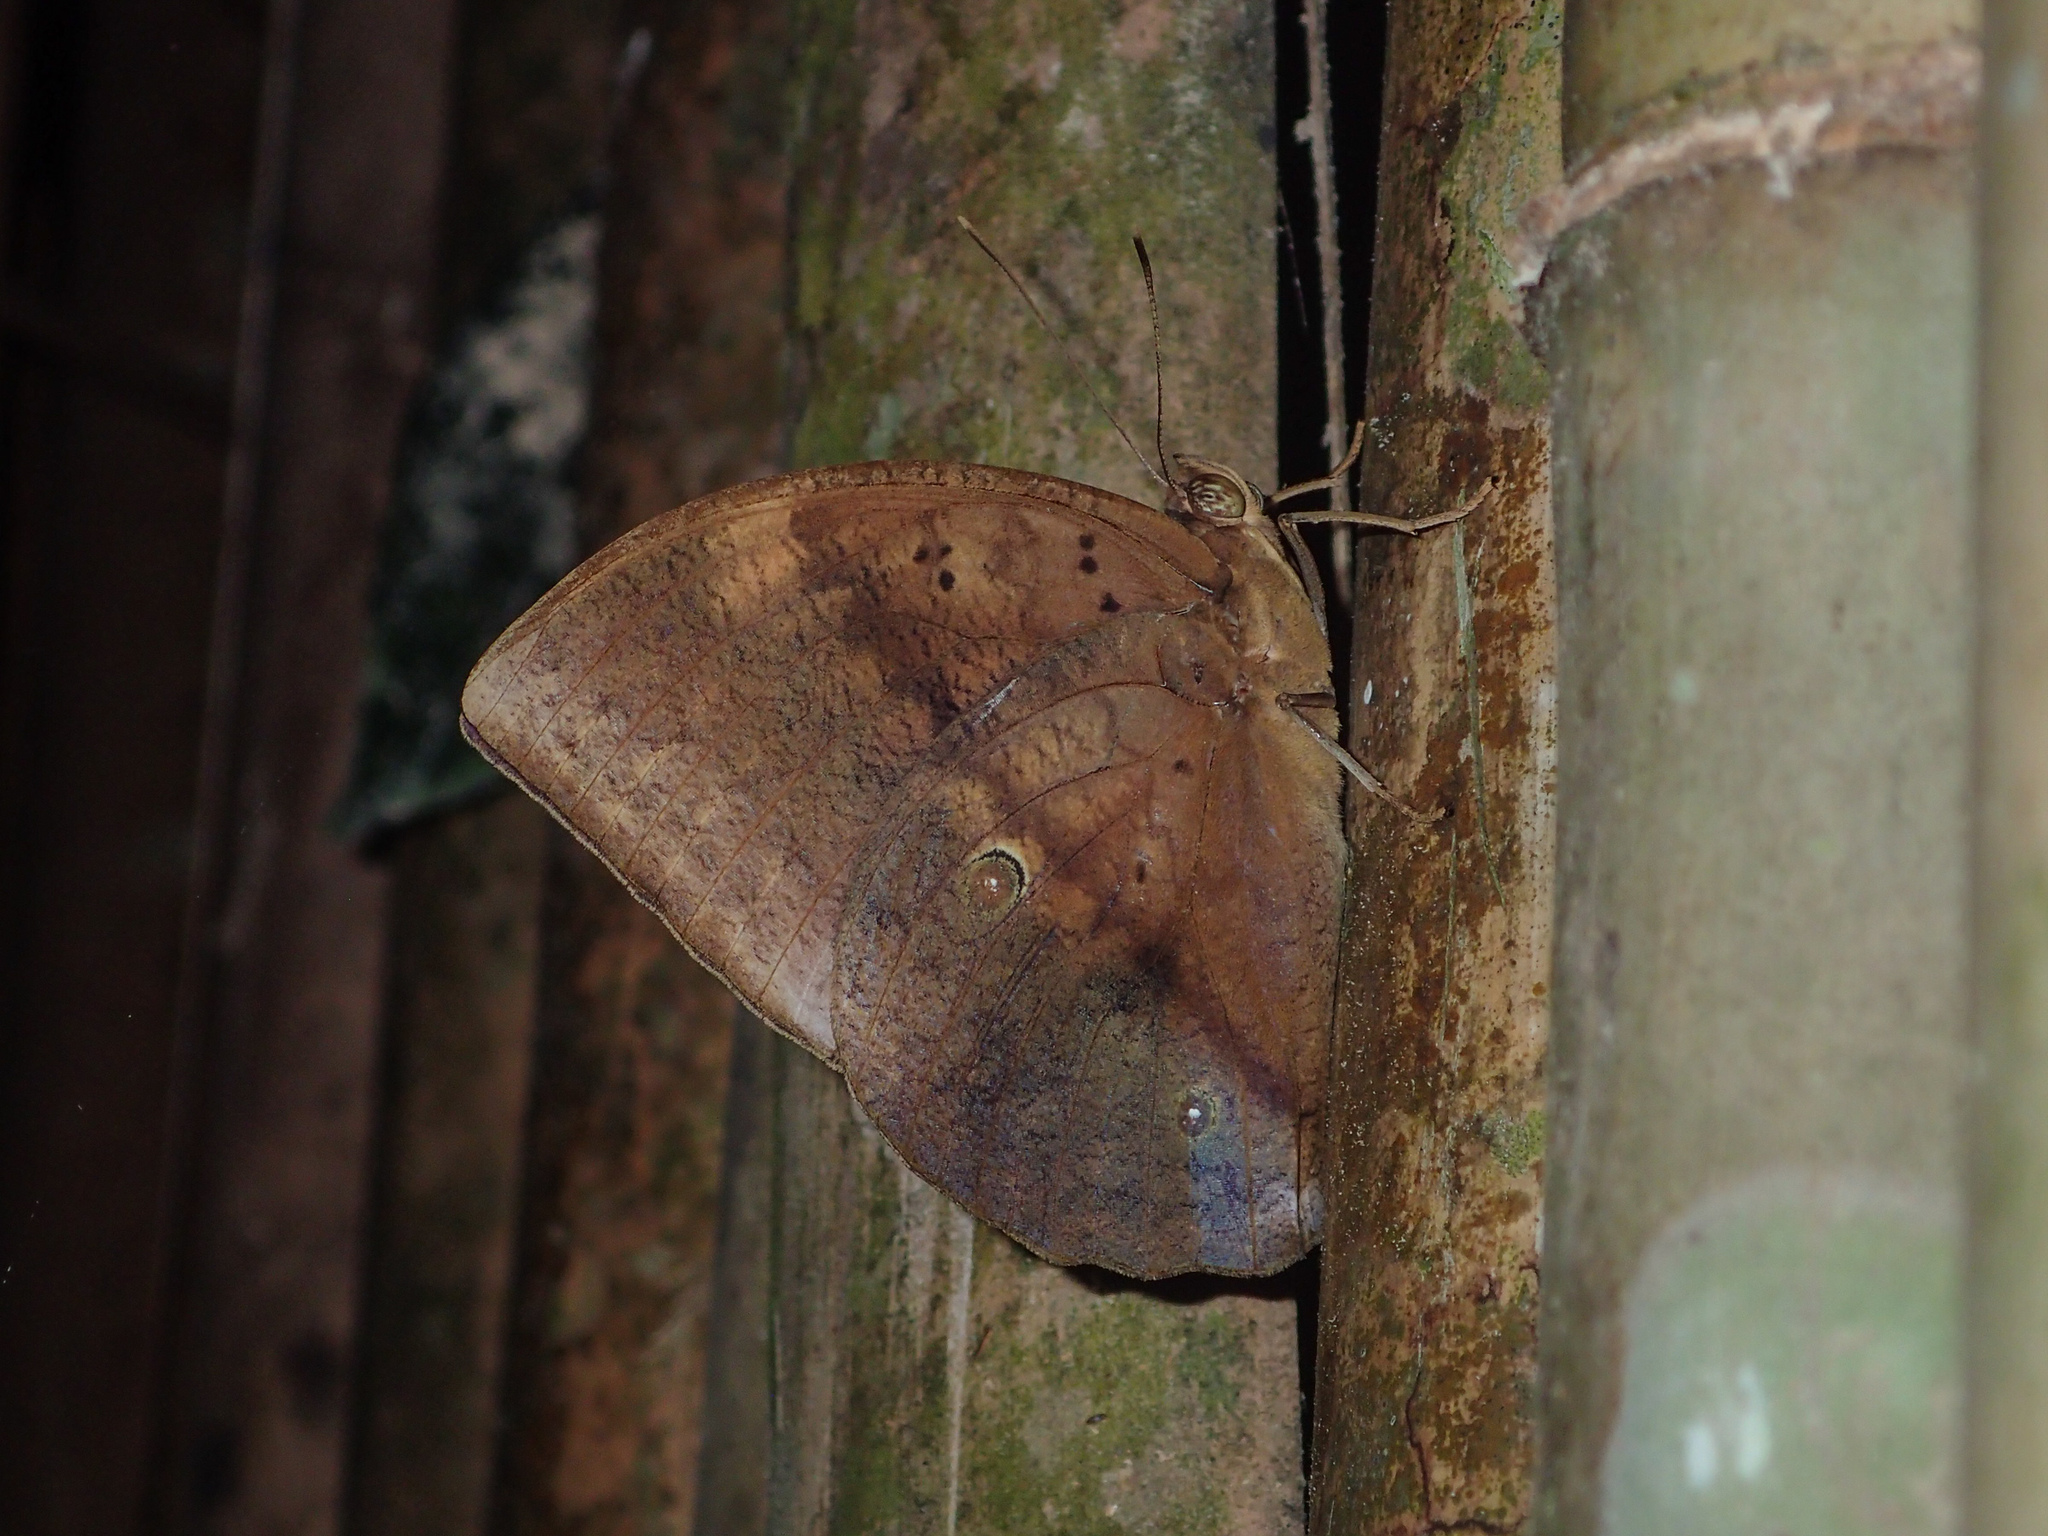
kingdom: Animalia
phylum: Arthropoda
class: Insecta
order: Lepidoptera
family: Nymphalidae
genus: Discophora
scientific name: Discophora timora
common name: Great duffer
